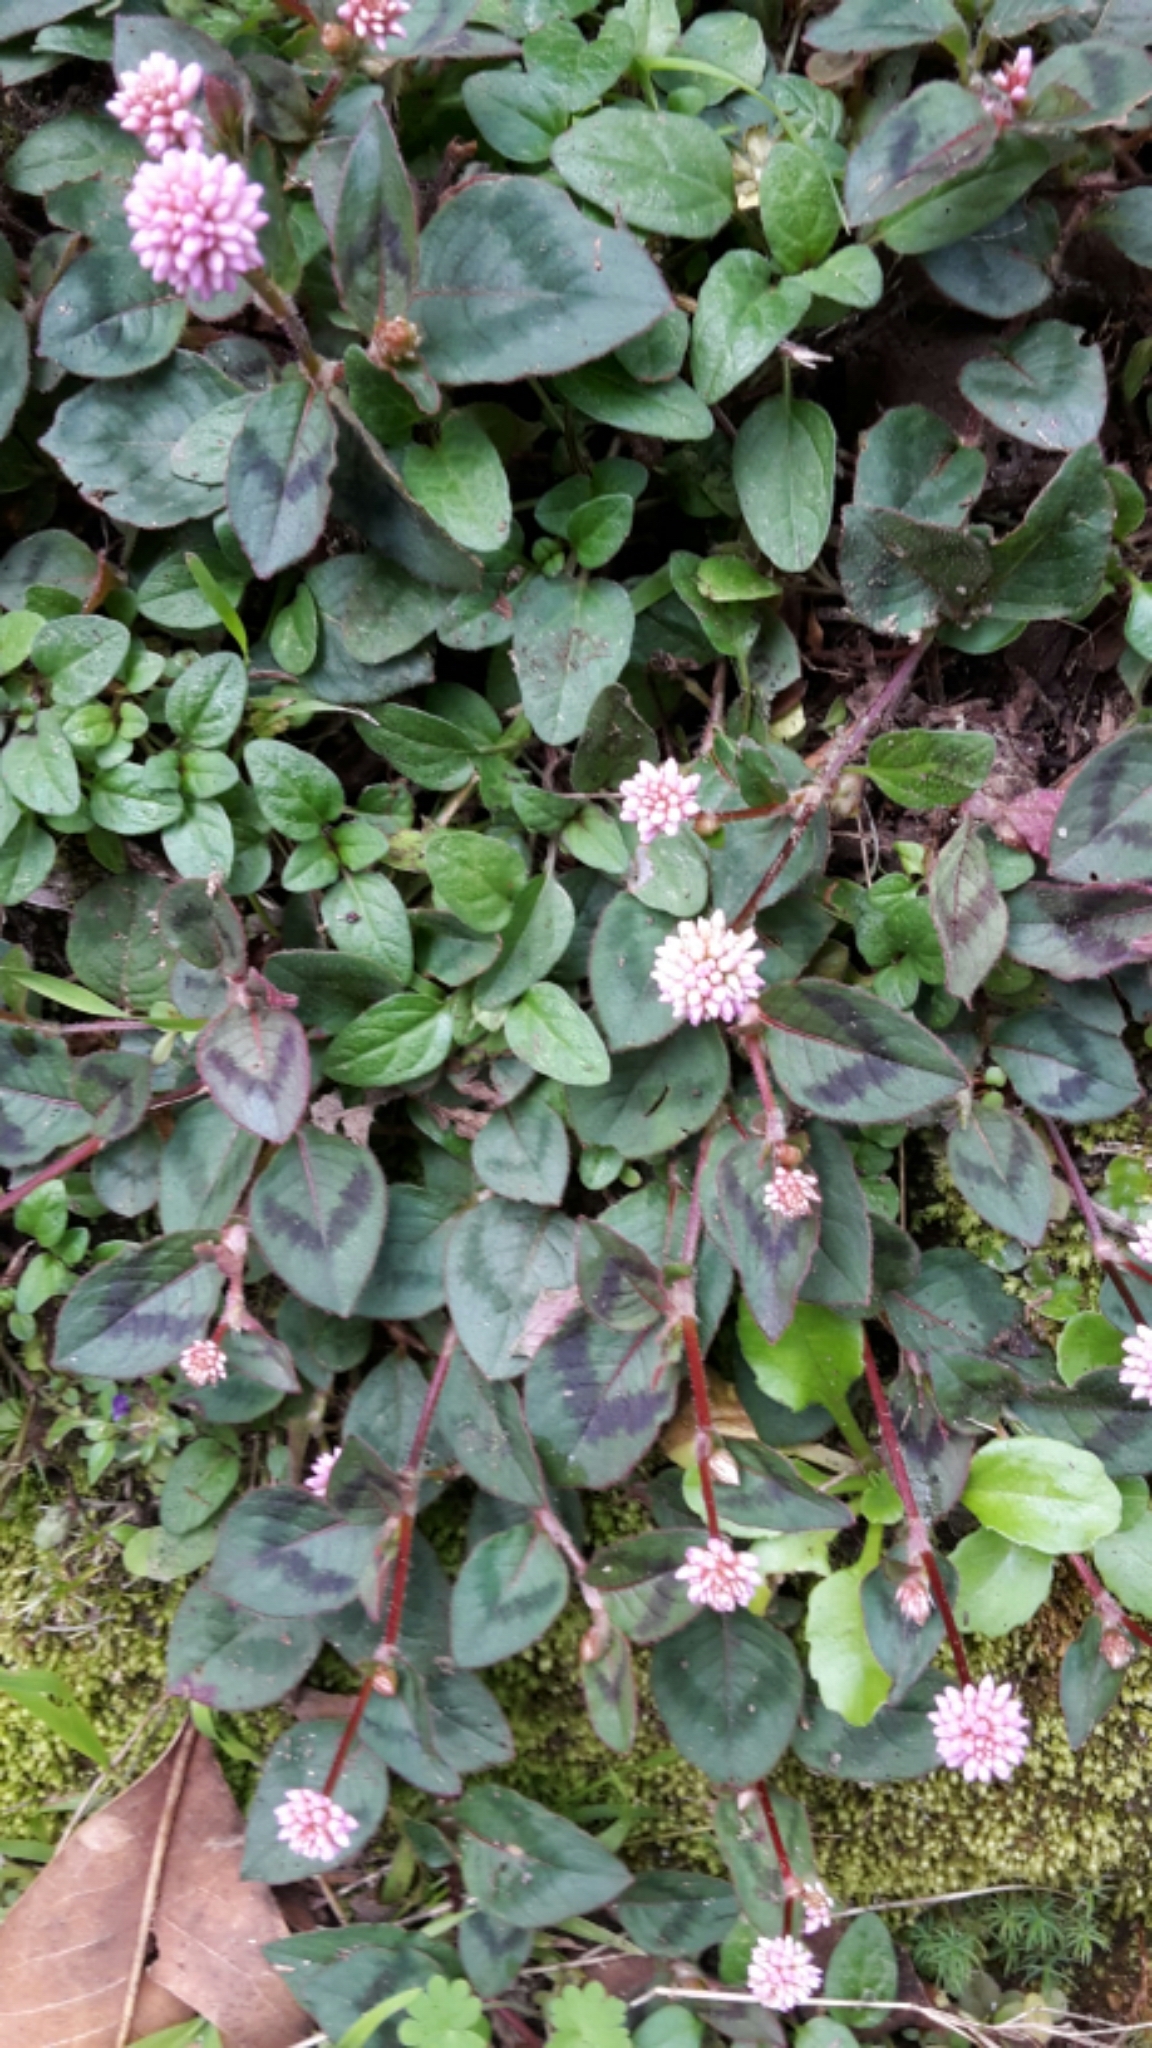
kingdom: Plantae
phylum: Tracheophyta
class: Magnoliopsida
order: Caryophyllales
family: Polygonaceae
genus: Persicaria
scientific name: Persicaria capitata
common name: Pinkhead smartweed
